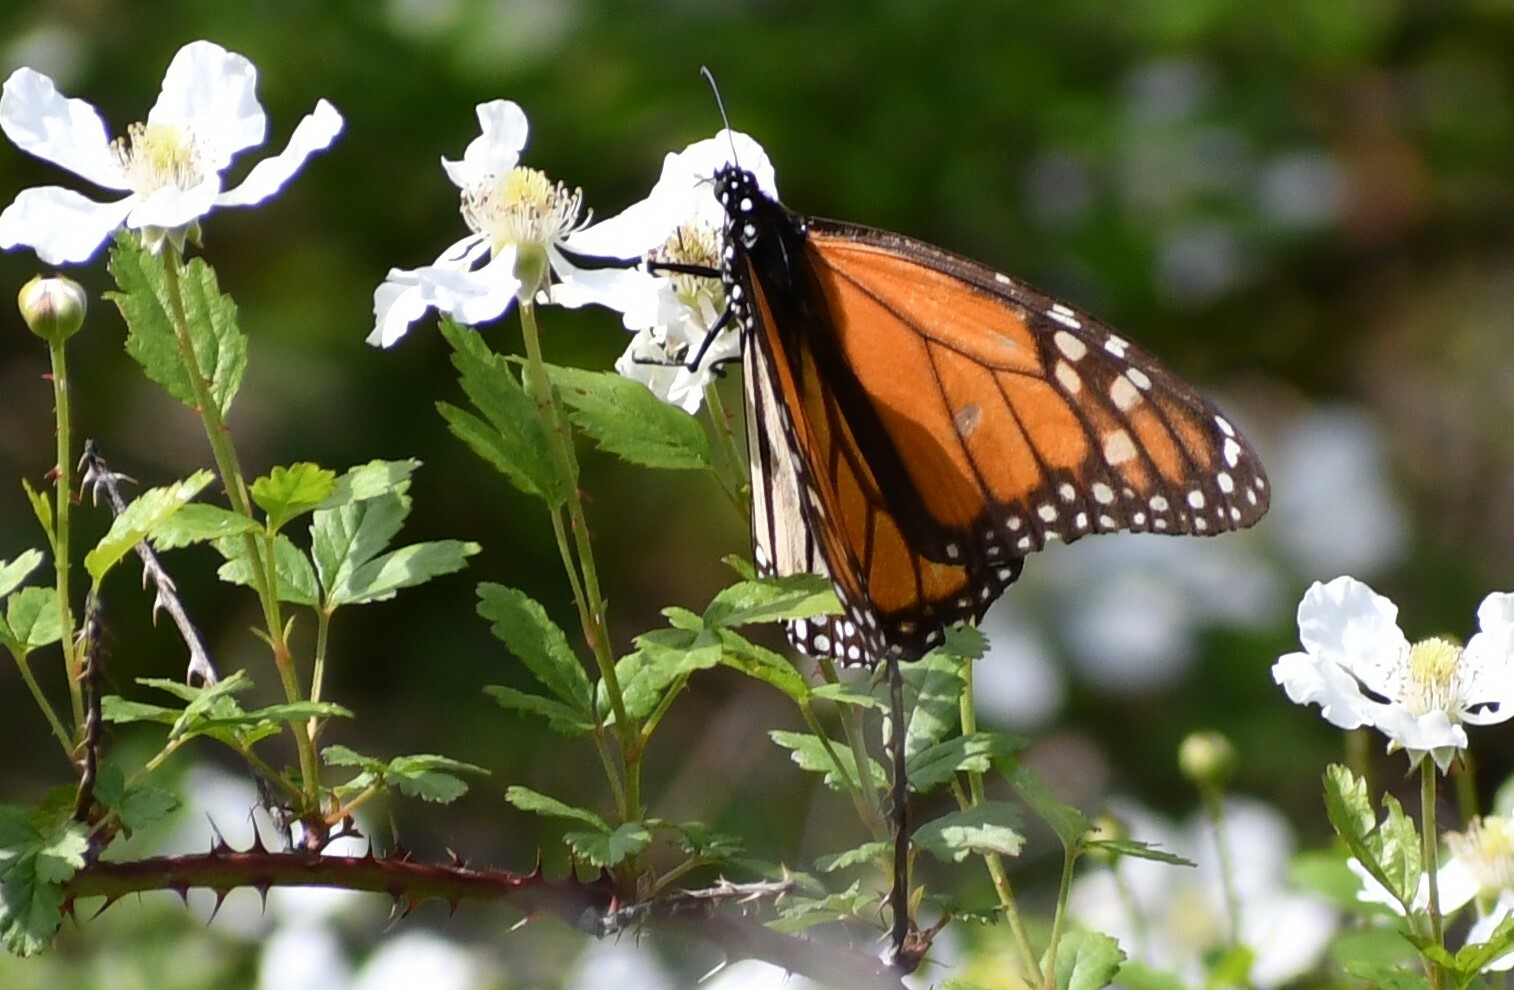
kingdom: Animalia
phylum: Arthropoda
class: Insecta
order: Lepidoptera
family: Nymphalidae
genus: Danaus
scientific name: Danaus plexippus
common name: Monarch
